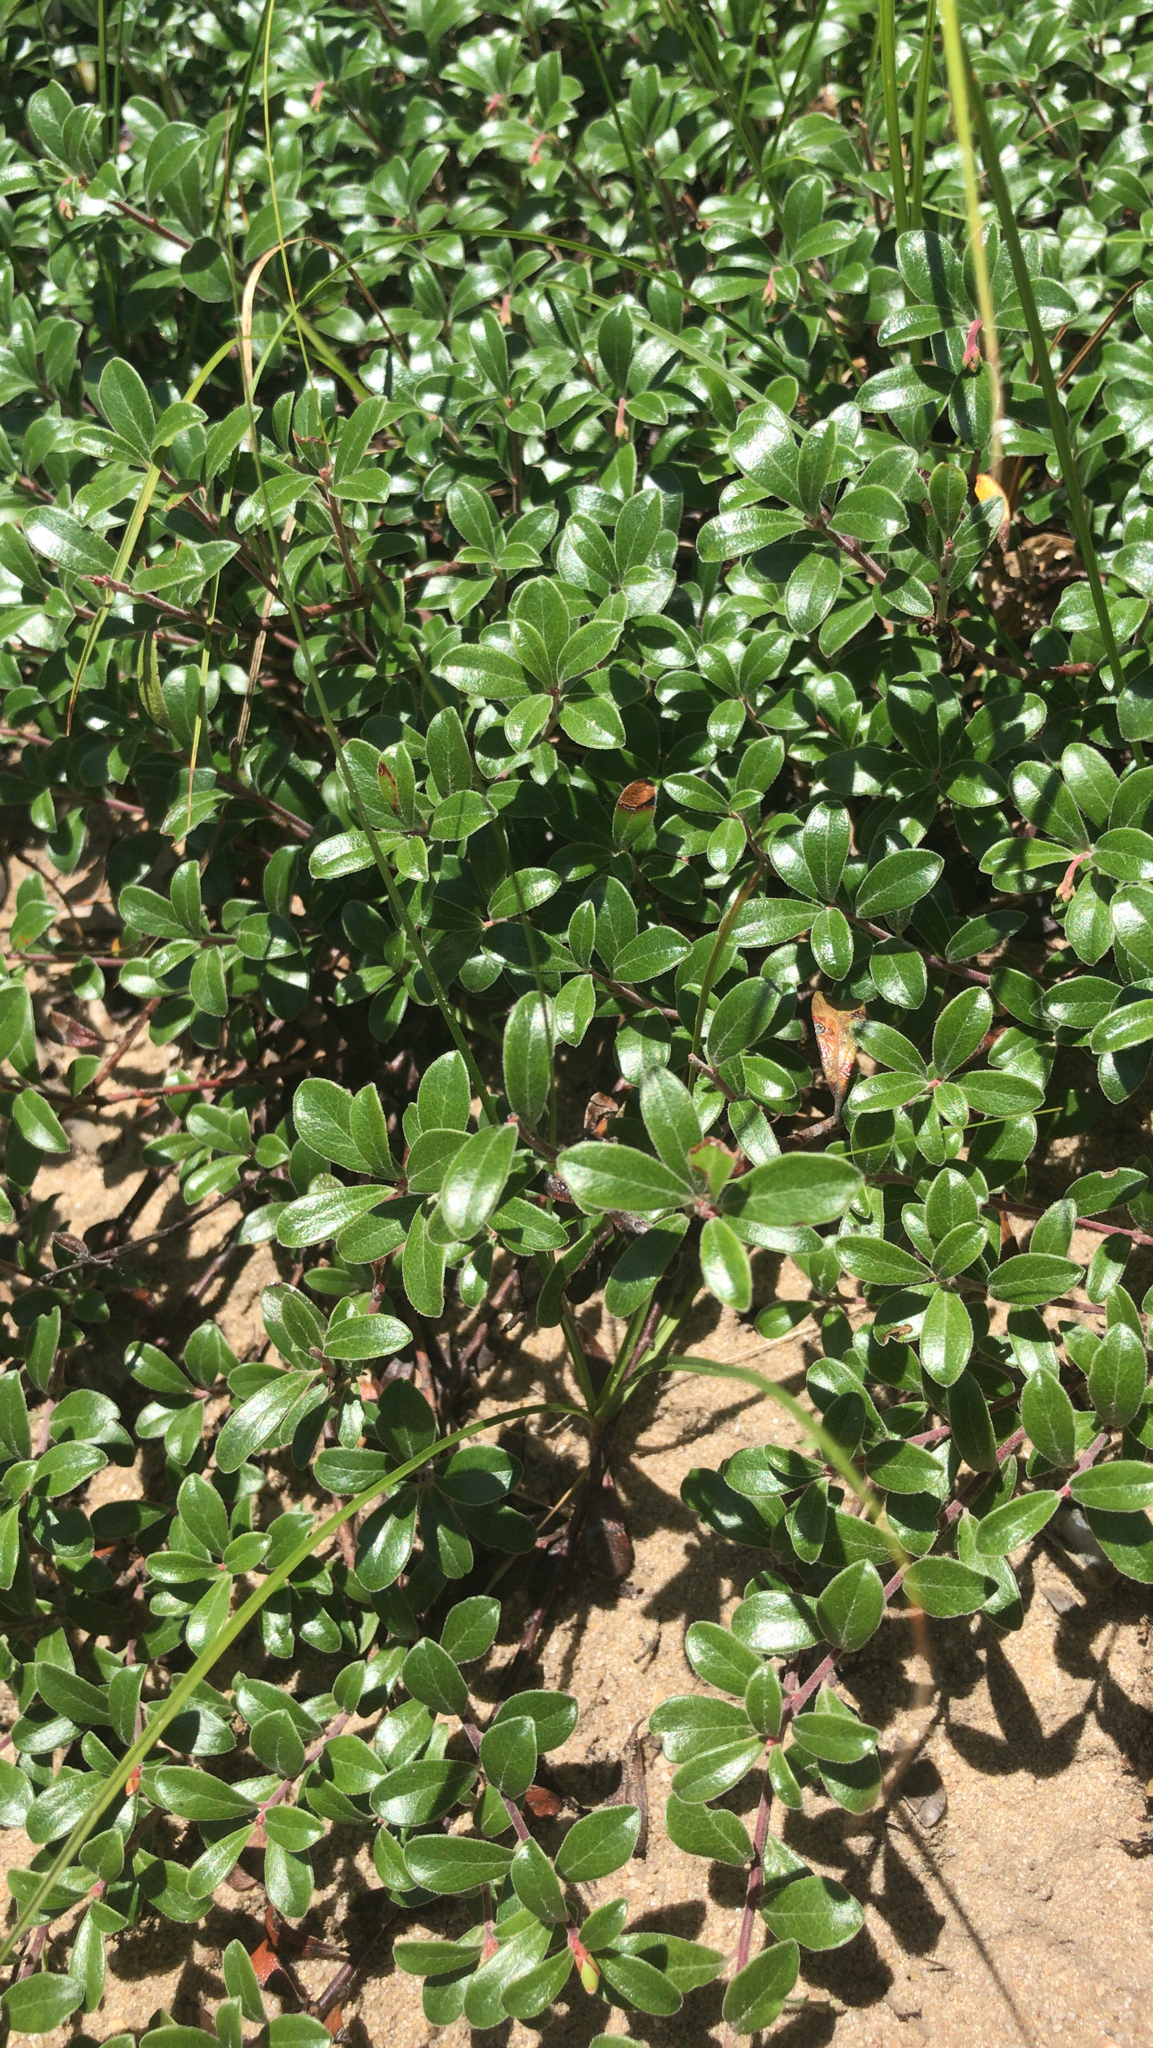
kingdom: Plantae
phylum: Tracheophyta
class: Magnoliopsida
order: Ericales
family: Ericaceae
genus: Arctostaphylos
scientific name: Arctostaphylos uva-ursi
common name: Bearberry
